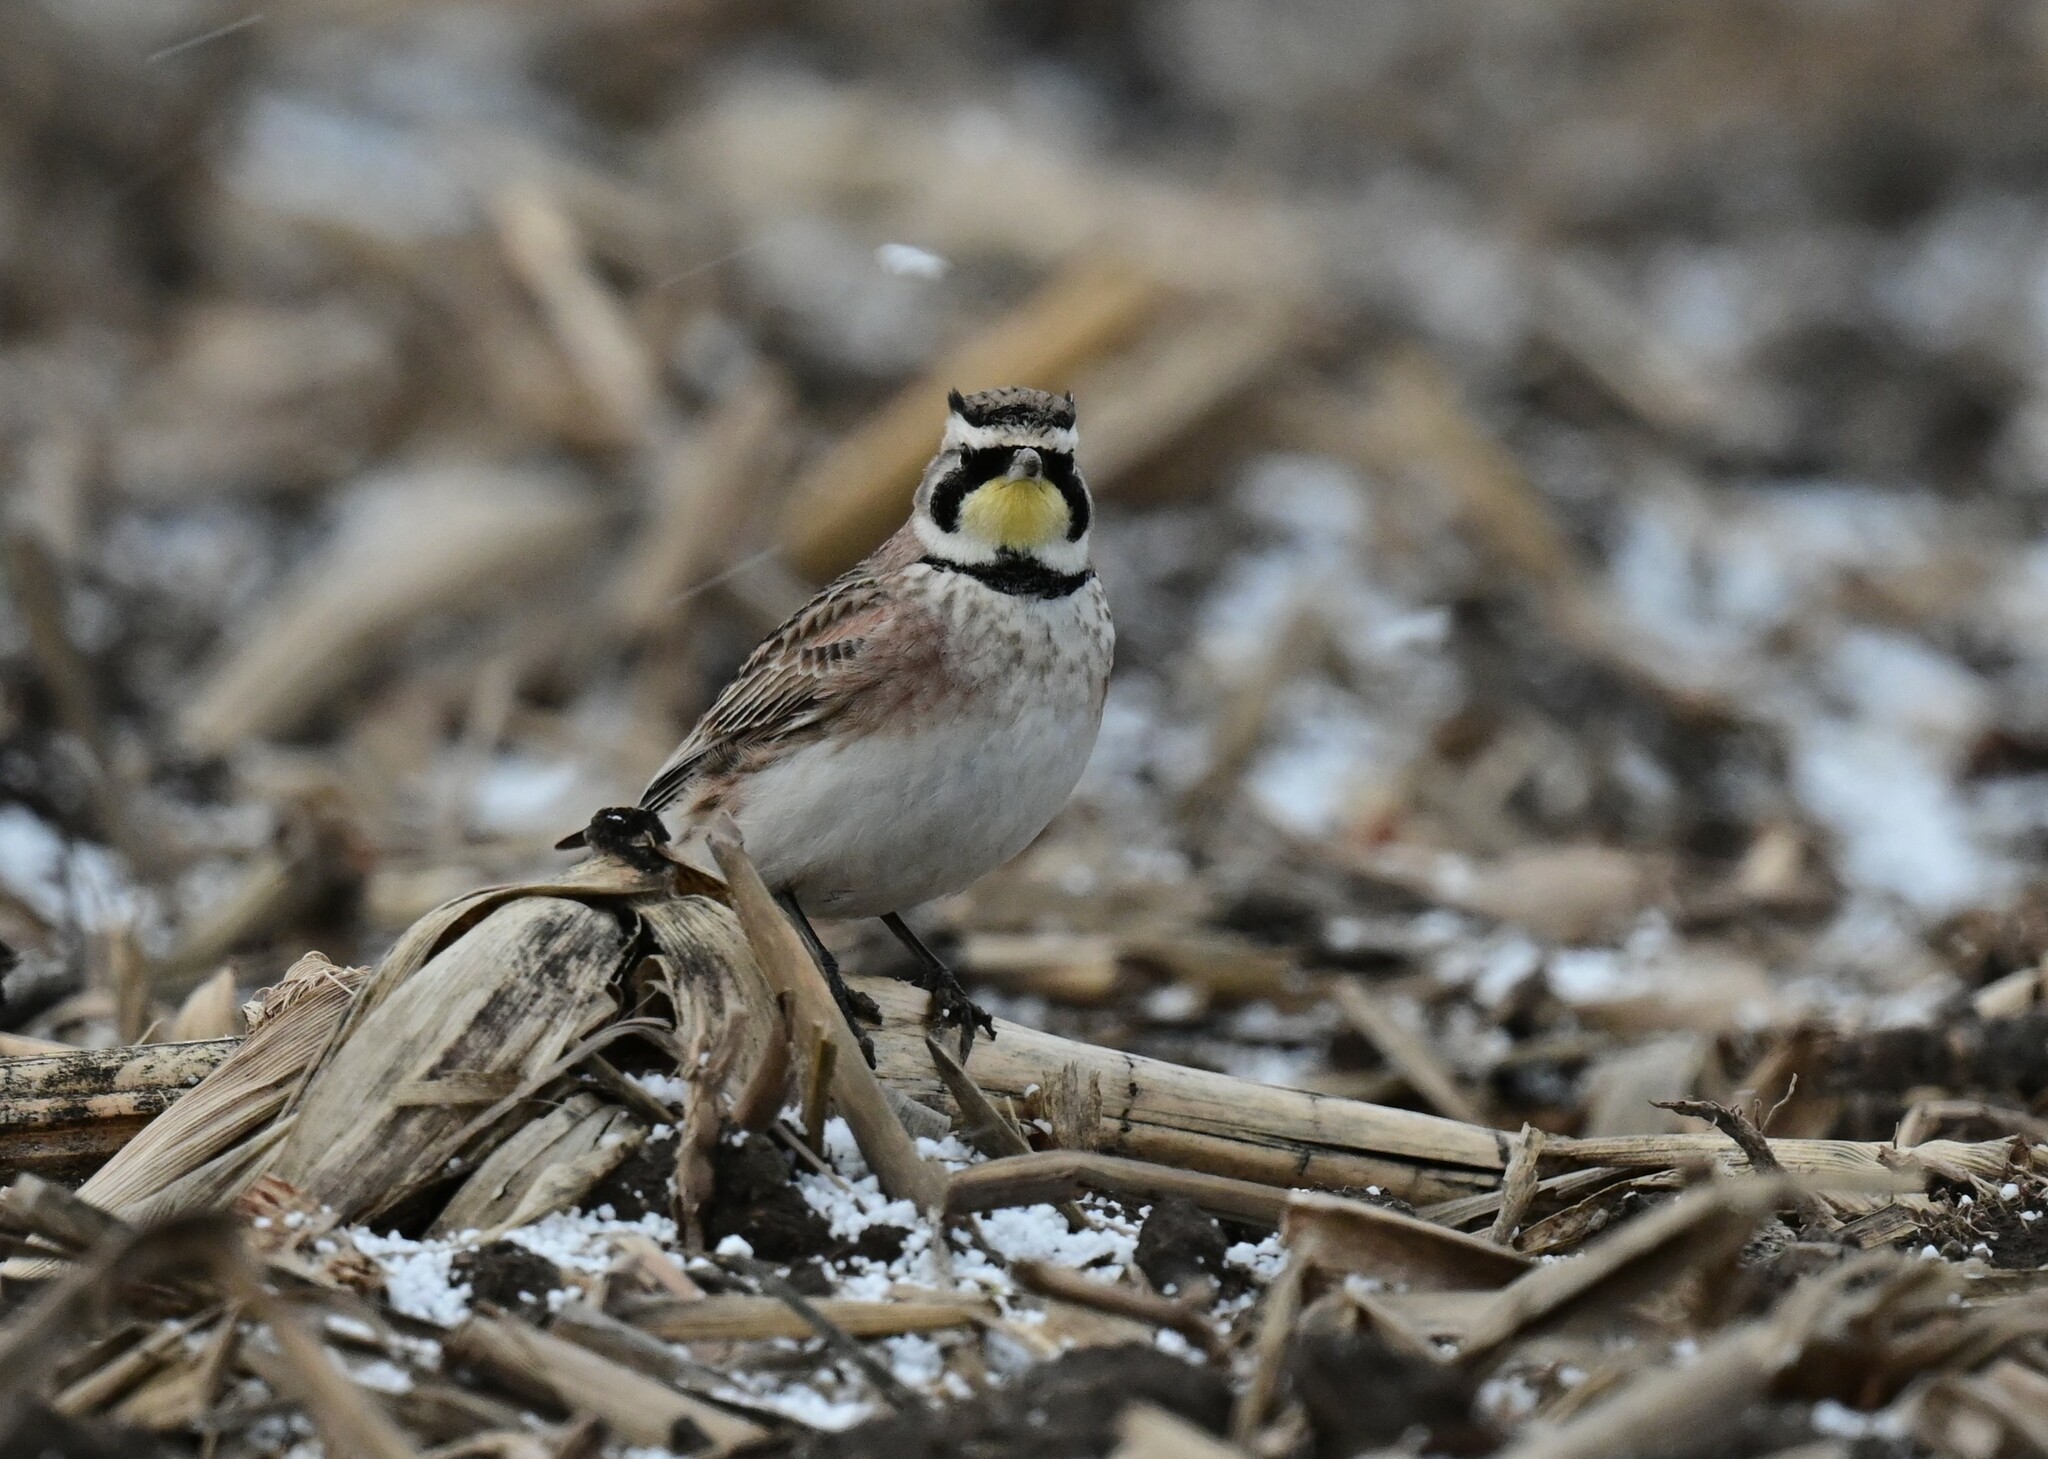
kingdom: Animalia
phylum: Chordata
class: Aves
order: Passeriformes
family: Alaudidae
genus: Eremophila
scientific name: Eremophila alpestris
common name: Horned lark
